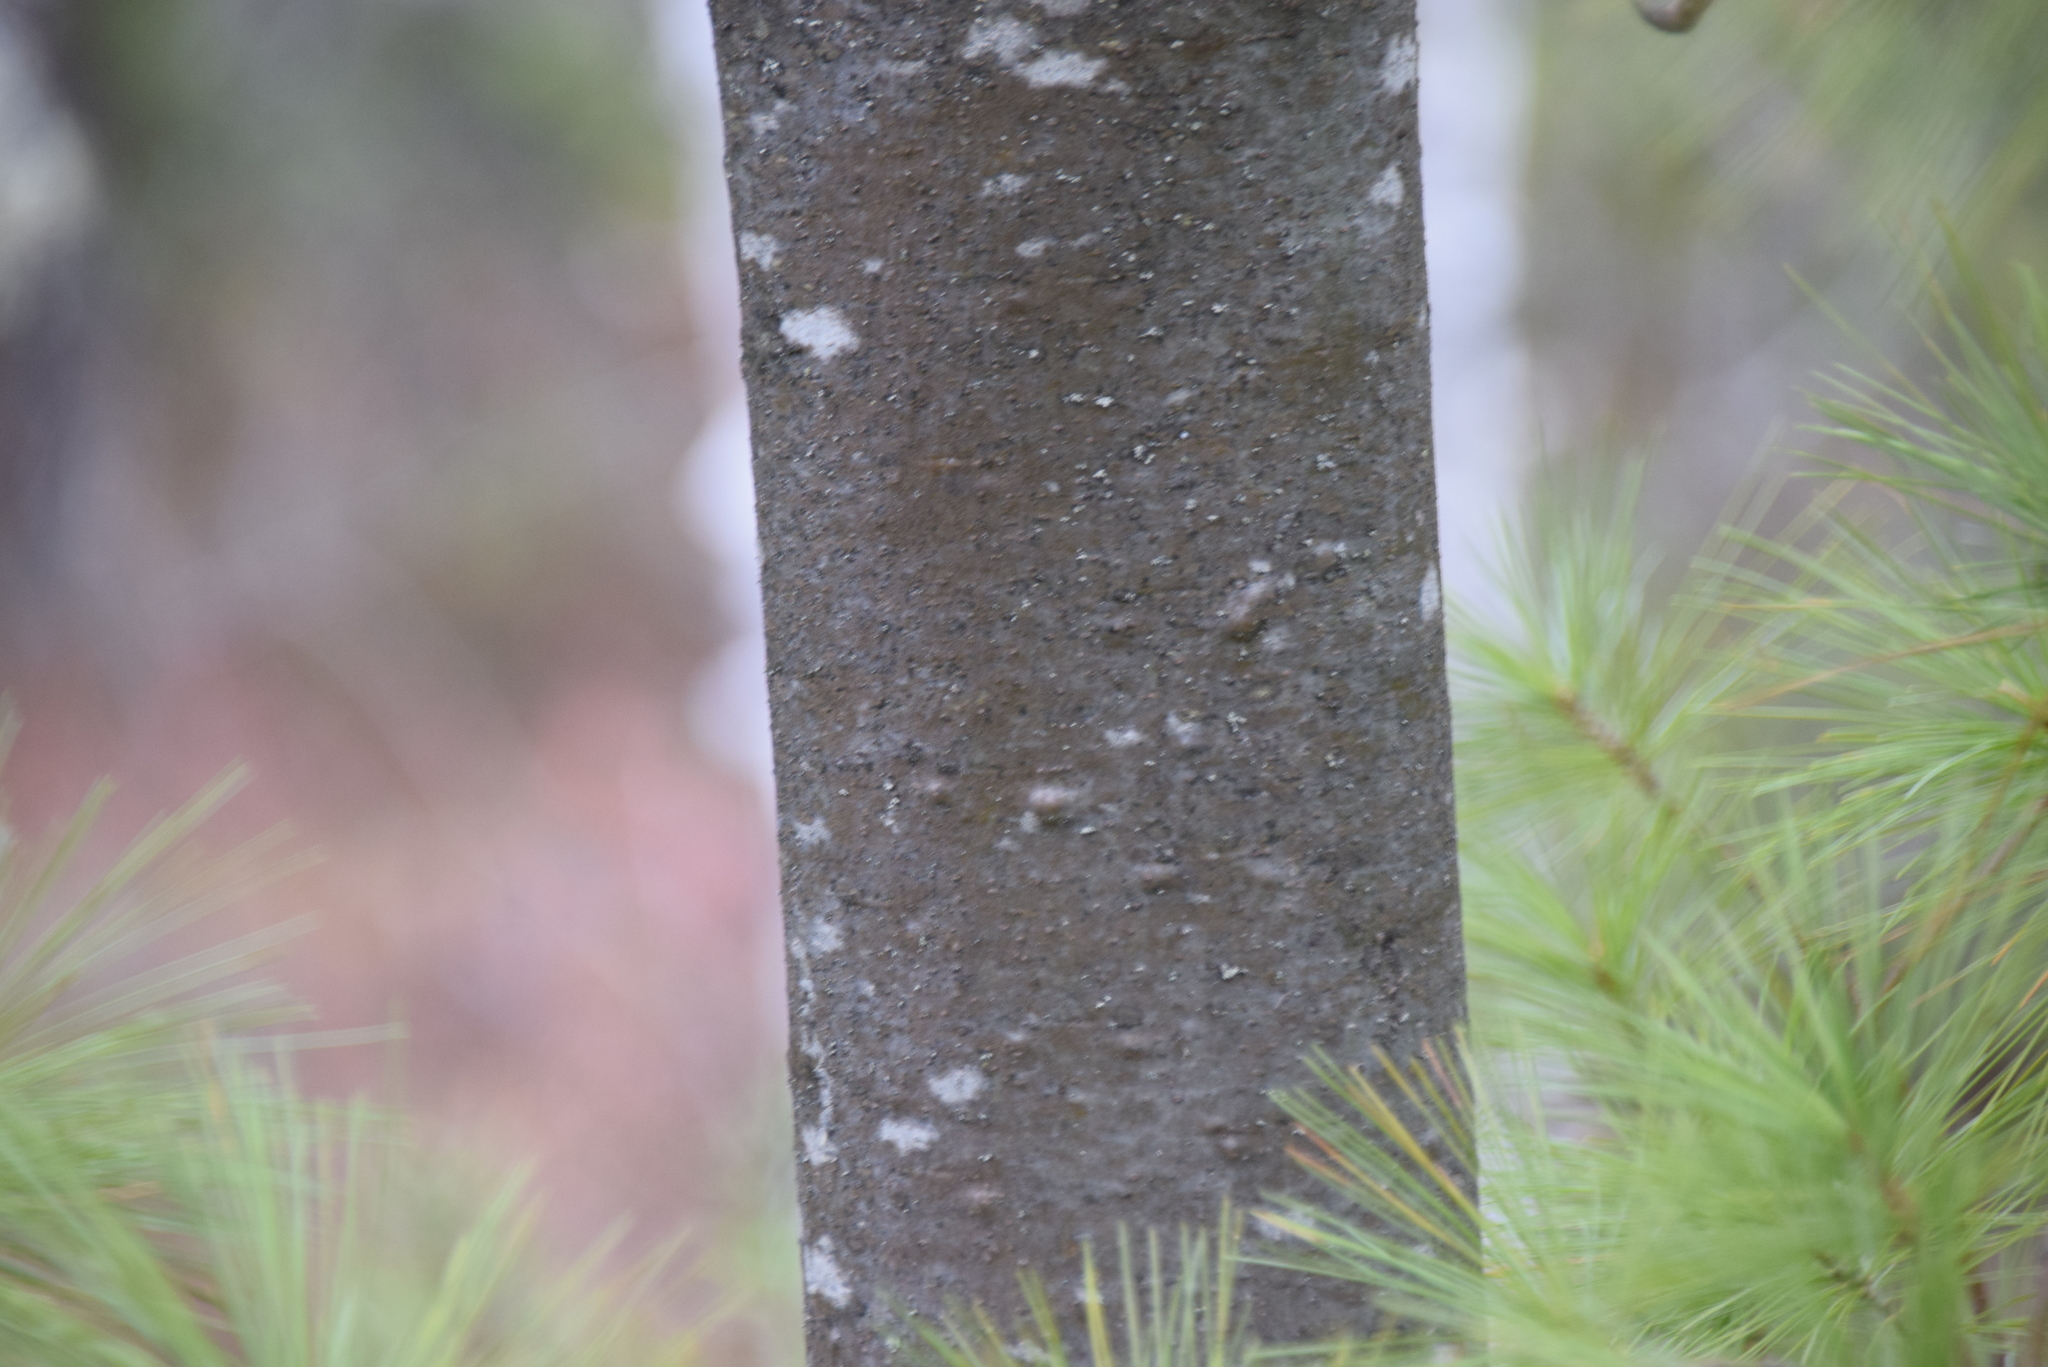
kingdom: Plantae
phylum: Tracheophyta
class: Pinopsida
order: Pinales
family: Pinaceae
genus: Pinus
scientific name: Pinus strobus
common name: Weymouth pine
